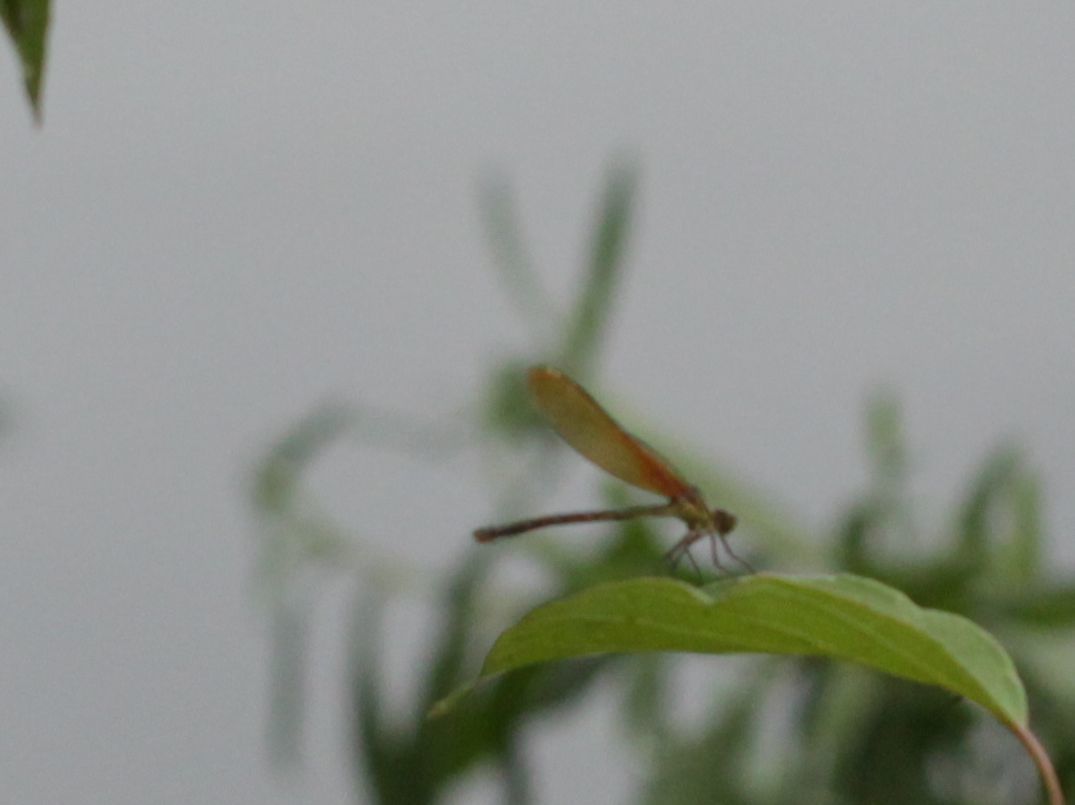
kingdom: Animalia
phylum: Arthropoda
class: Insecta
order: Odonata
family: Calopterygidae
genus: Hetaerina
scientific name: Hetaerina americana
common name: American rubyspot
